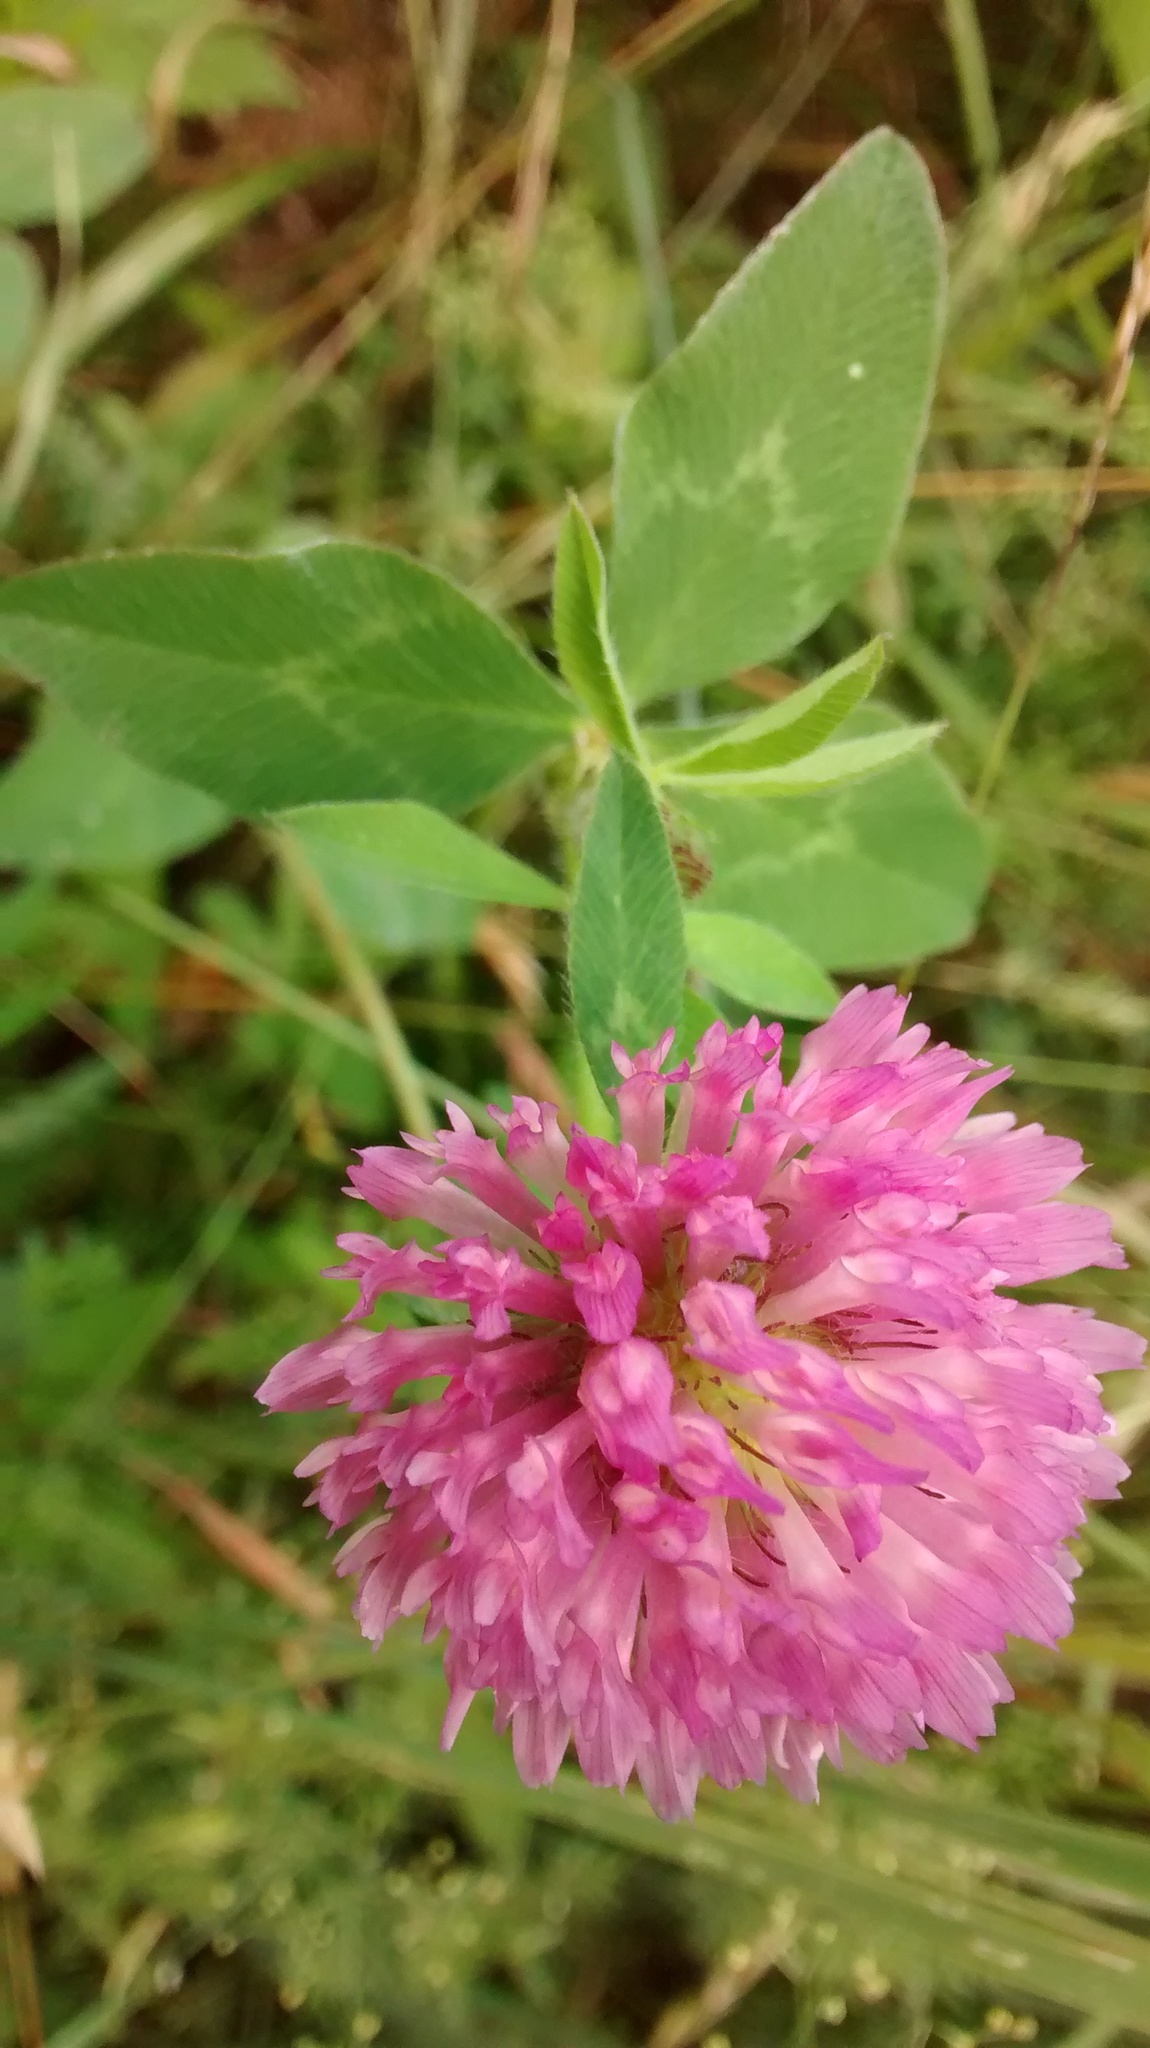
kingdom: Plantae
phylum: Tracheophyta
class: Magnoliopsida
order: Fabales
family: Fabaceae
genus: Trifolium
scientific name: Trifolium pratense
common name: Red clover
